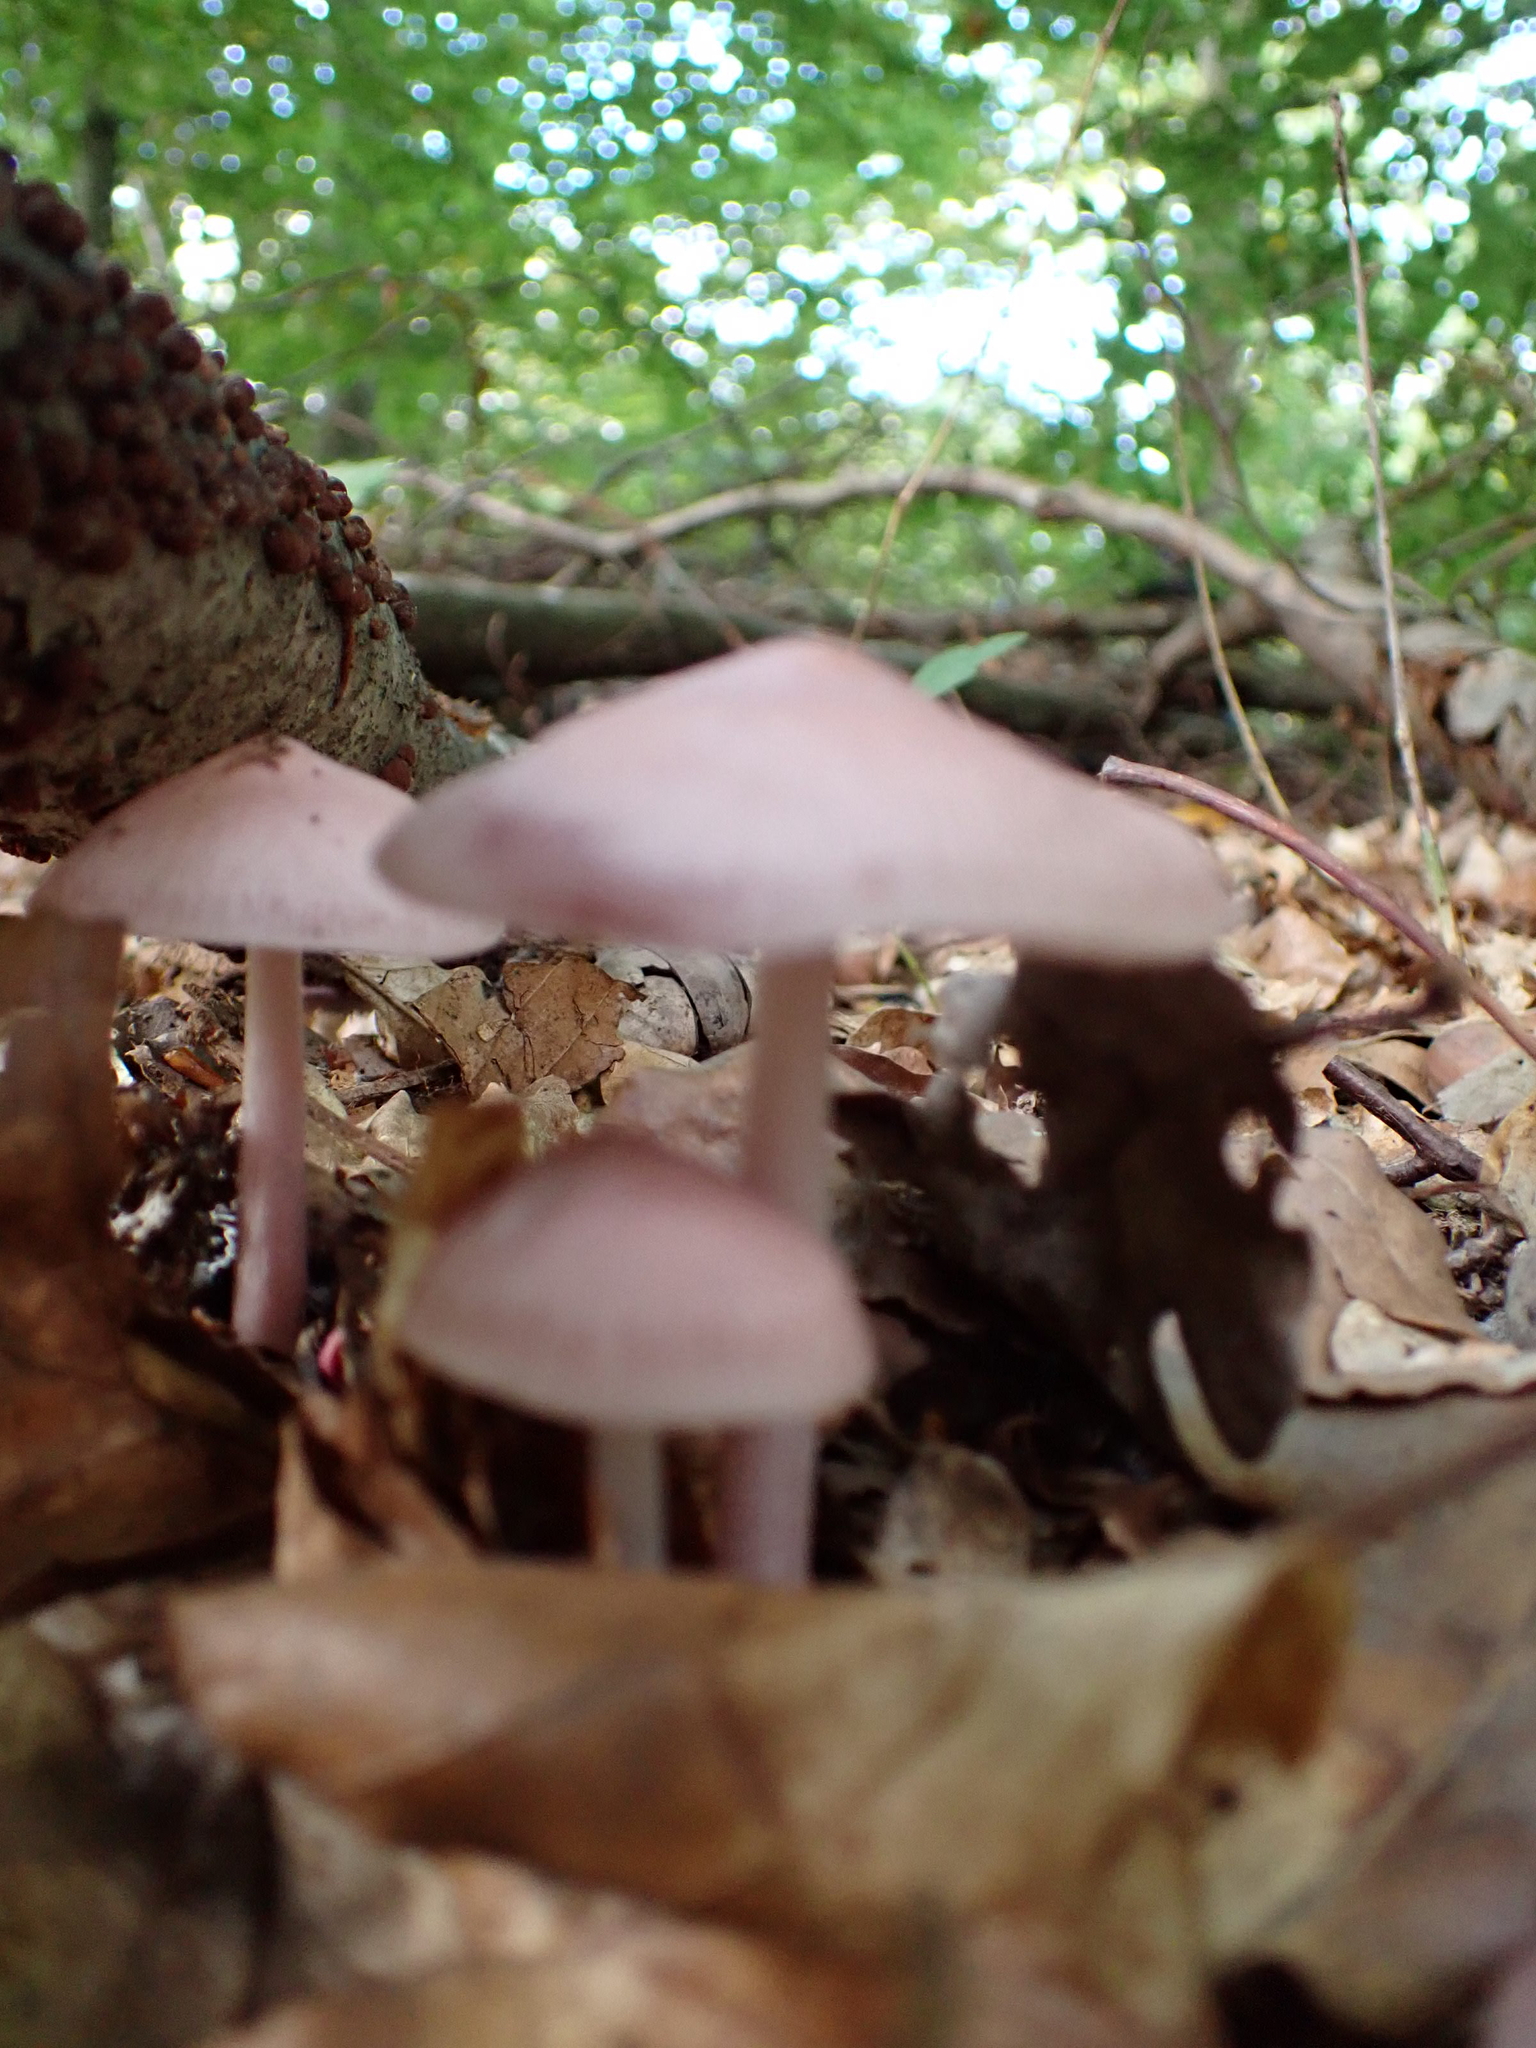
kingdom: Fungi
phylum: Basidiomycota
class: Agaricomycetes
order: Agaricales
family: Mycenaceae
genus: Mycena
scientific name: Mycena rosea
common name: Rosy bonnet
